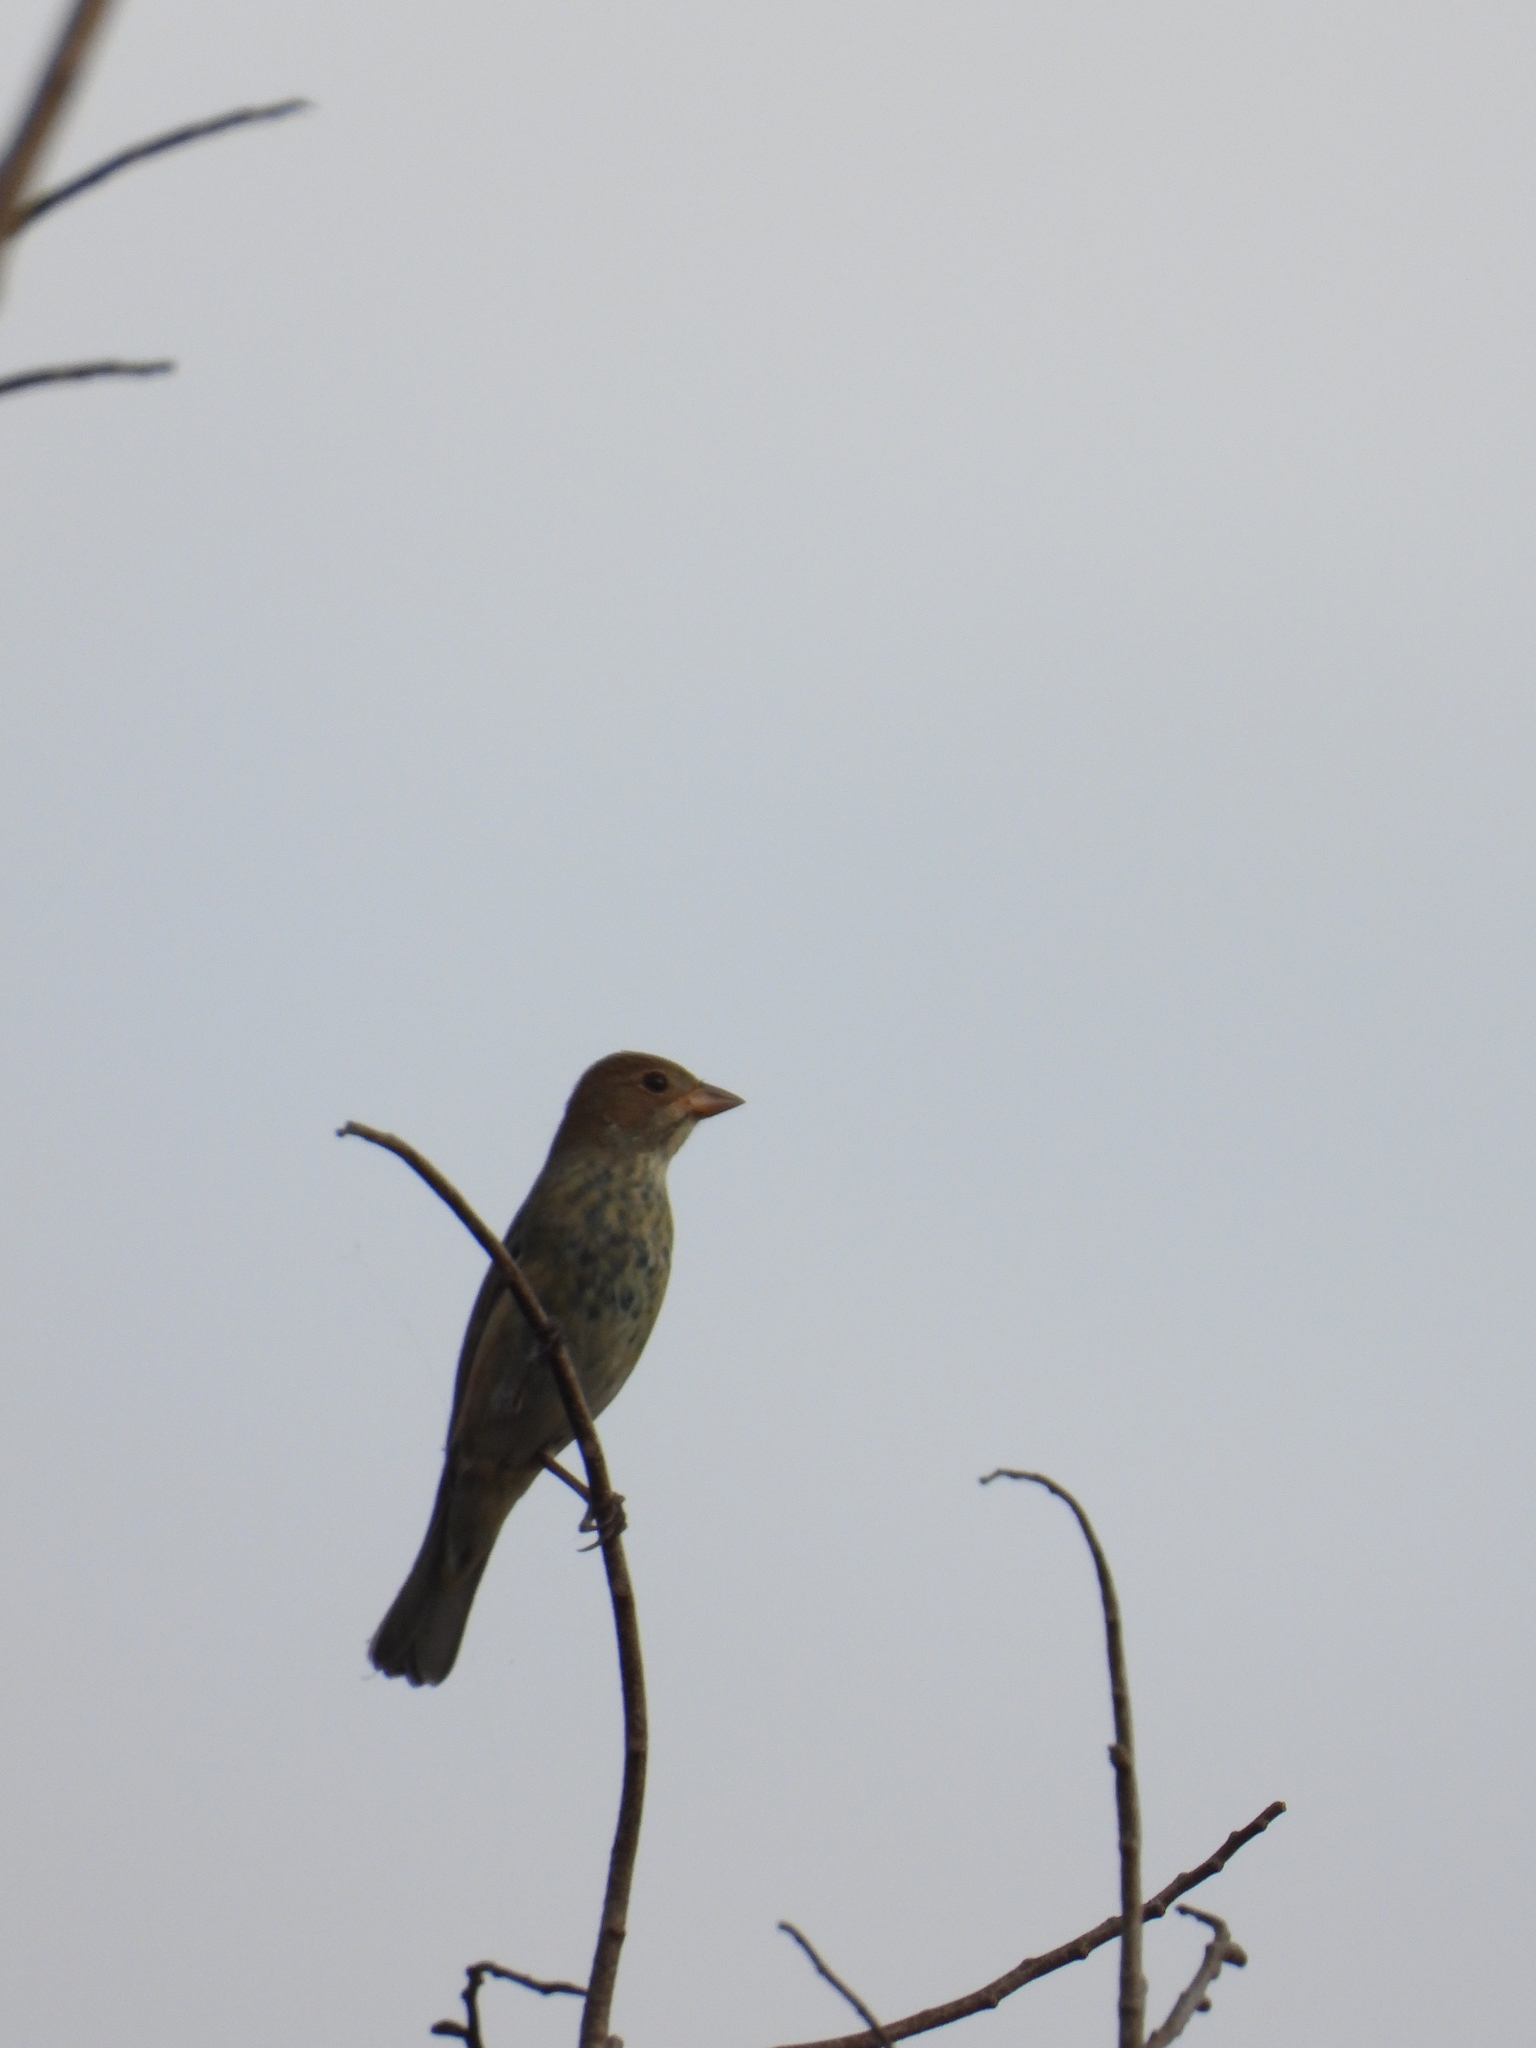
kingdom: Animalia
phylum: Chordata
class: Aves
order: Passeriformes
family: Cardinalidae
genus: Passerina
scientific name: Passerina cyanea
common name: Indigo bunting
